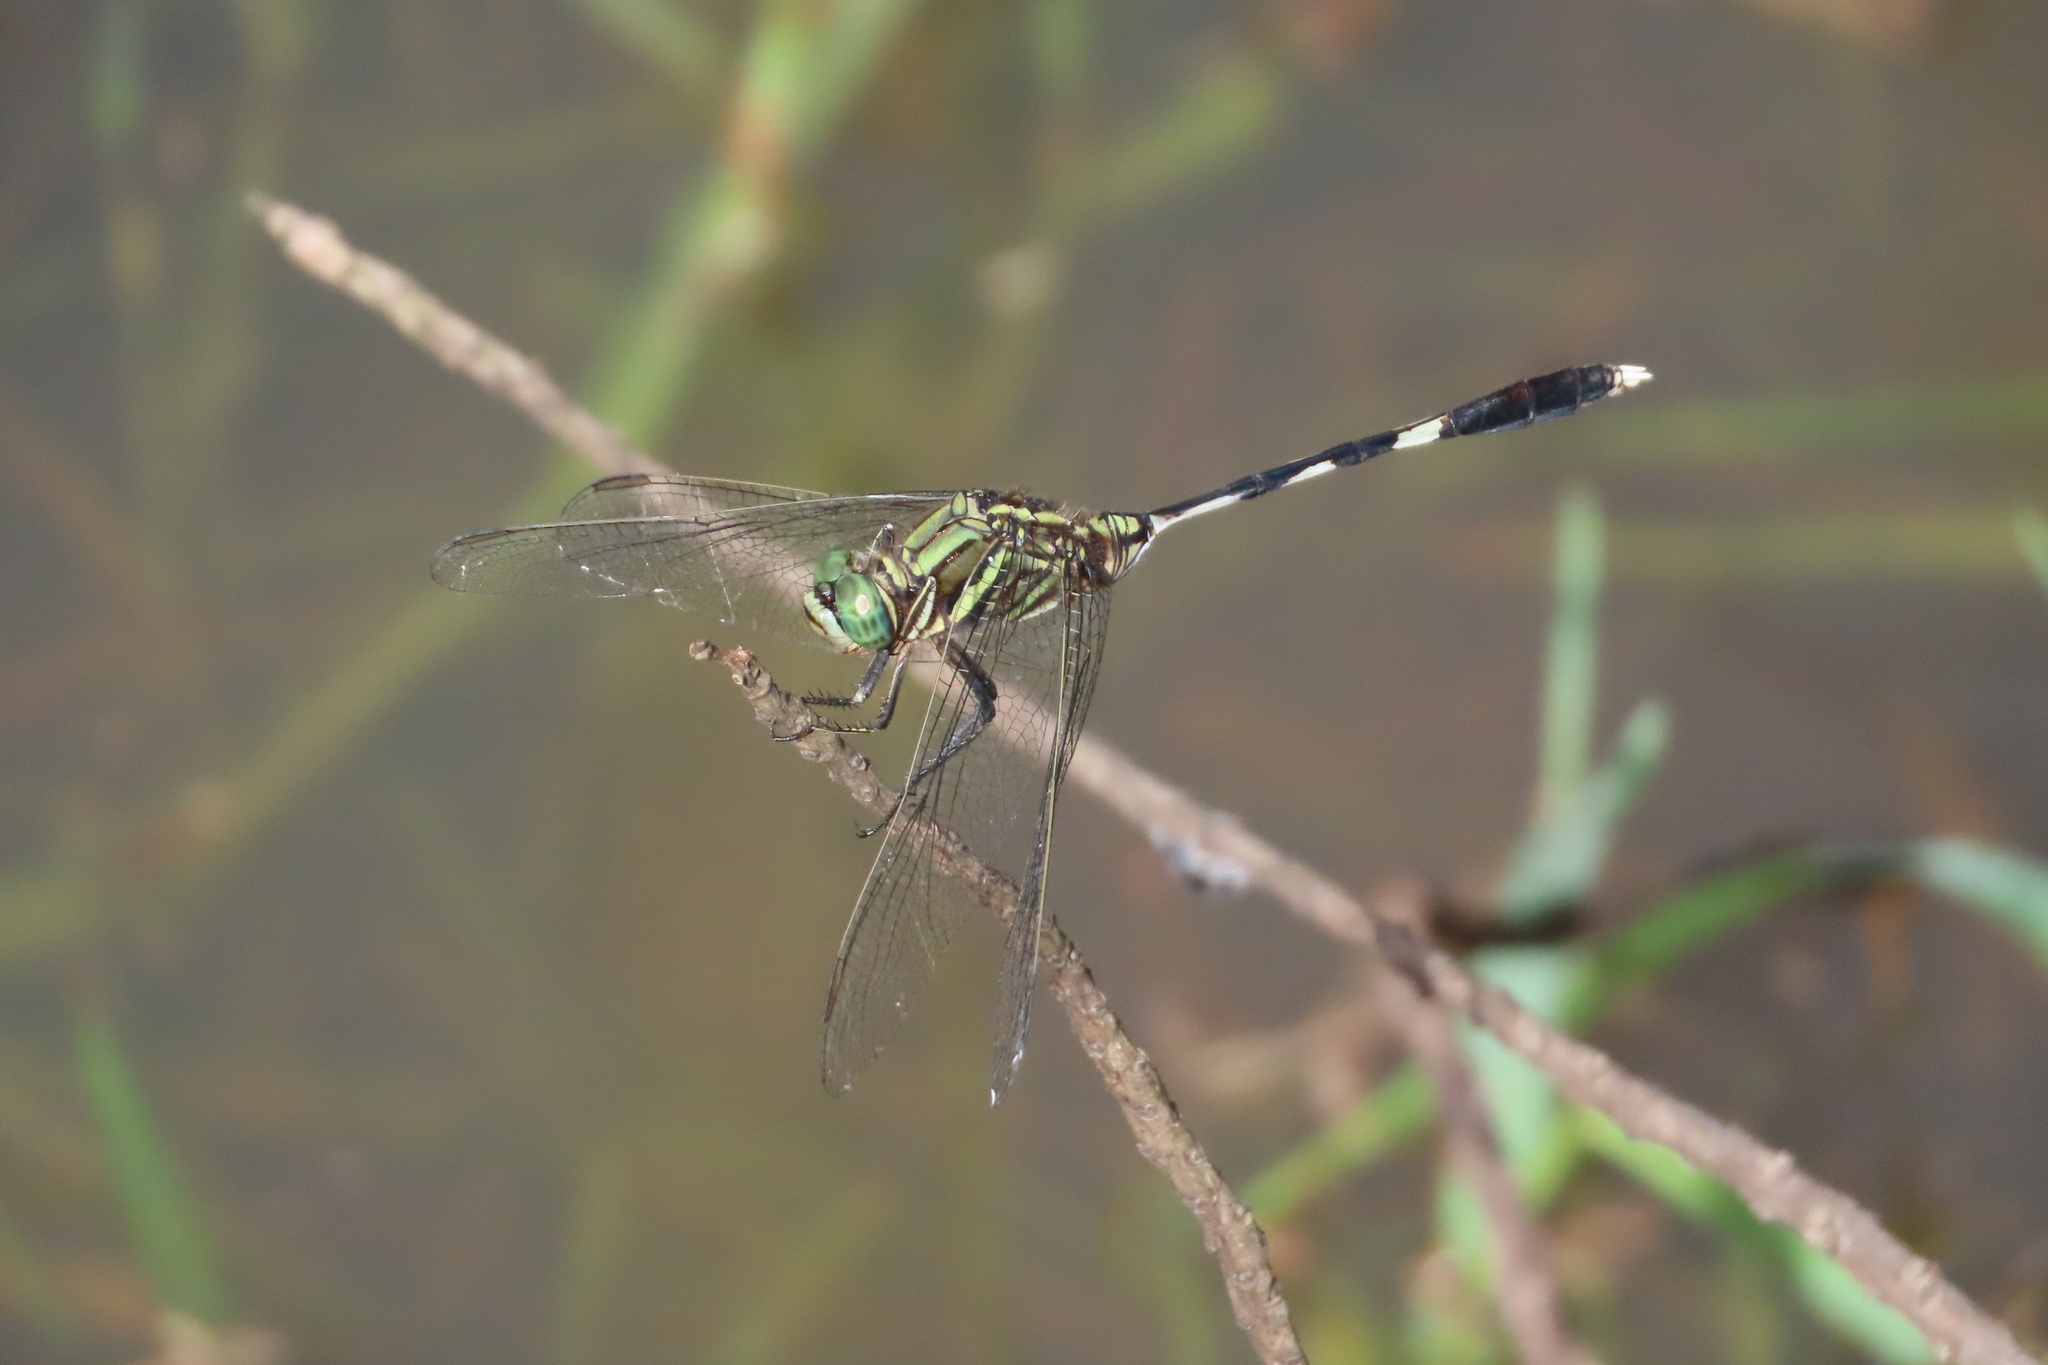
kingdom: Animalia
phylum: Arthropoda
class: Insecta
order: Odonata
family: Libellulidae
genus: Orthetrum
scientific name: Orthetrum sabina
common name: Slender skimmer
